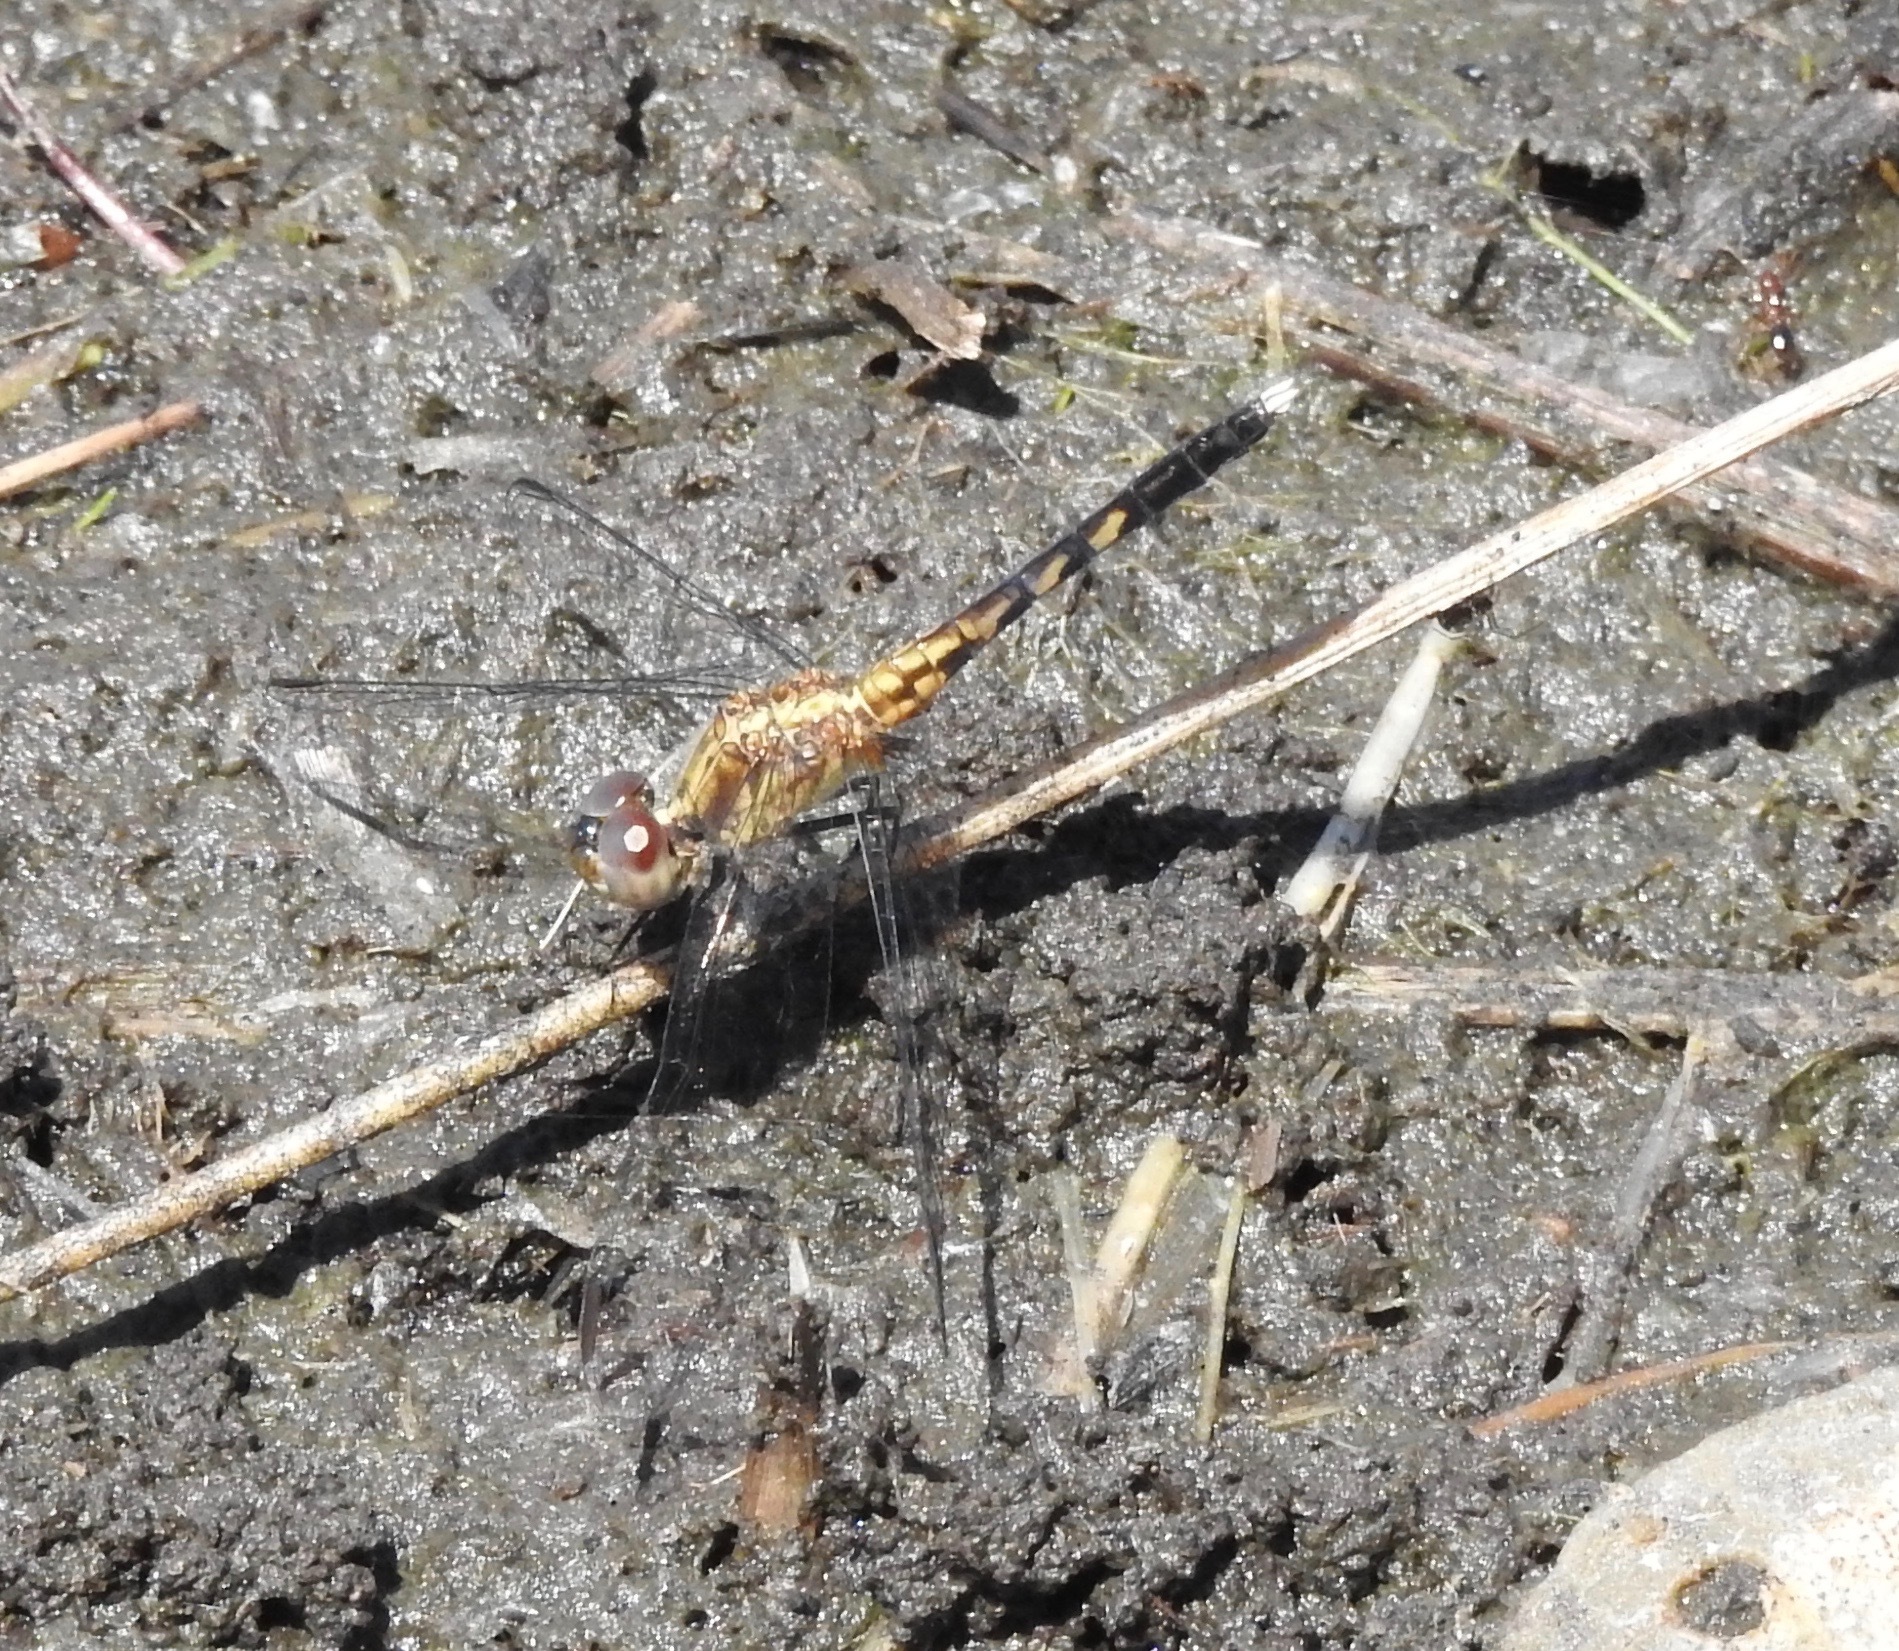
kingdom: Animalia
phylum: Arthropoda
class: Insecta
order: Odonata
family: Libellulidae
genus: Erythrodiplax
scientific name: Erythrodiplax minuscula
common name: Little blue dragonlet
